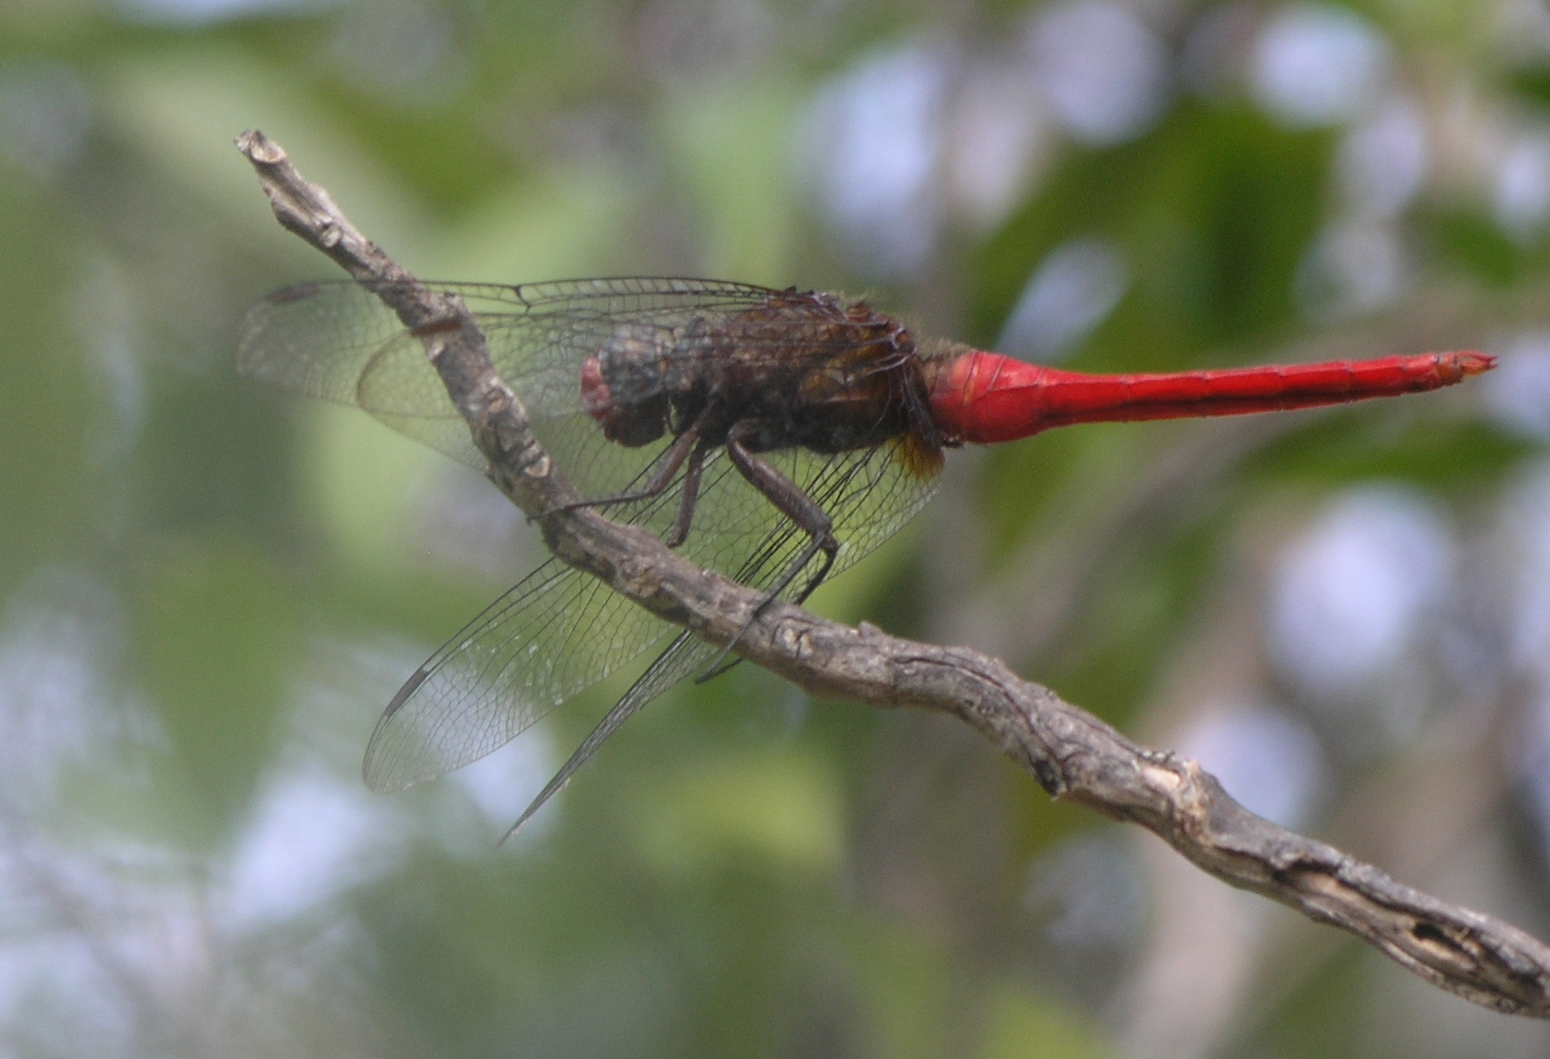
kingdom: Animalia
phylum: Arthropoda
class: Insecta
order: Odonata
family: Libellulidae
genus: Orthetrum
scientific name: Orthetrum chrysis
